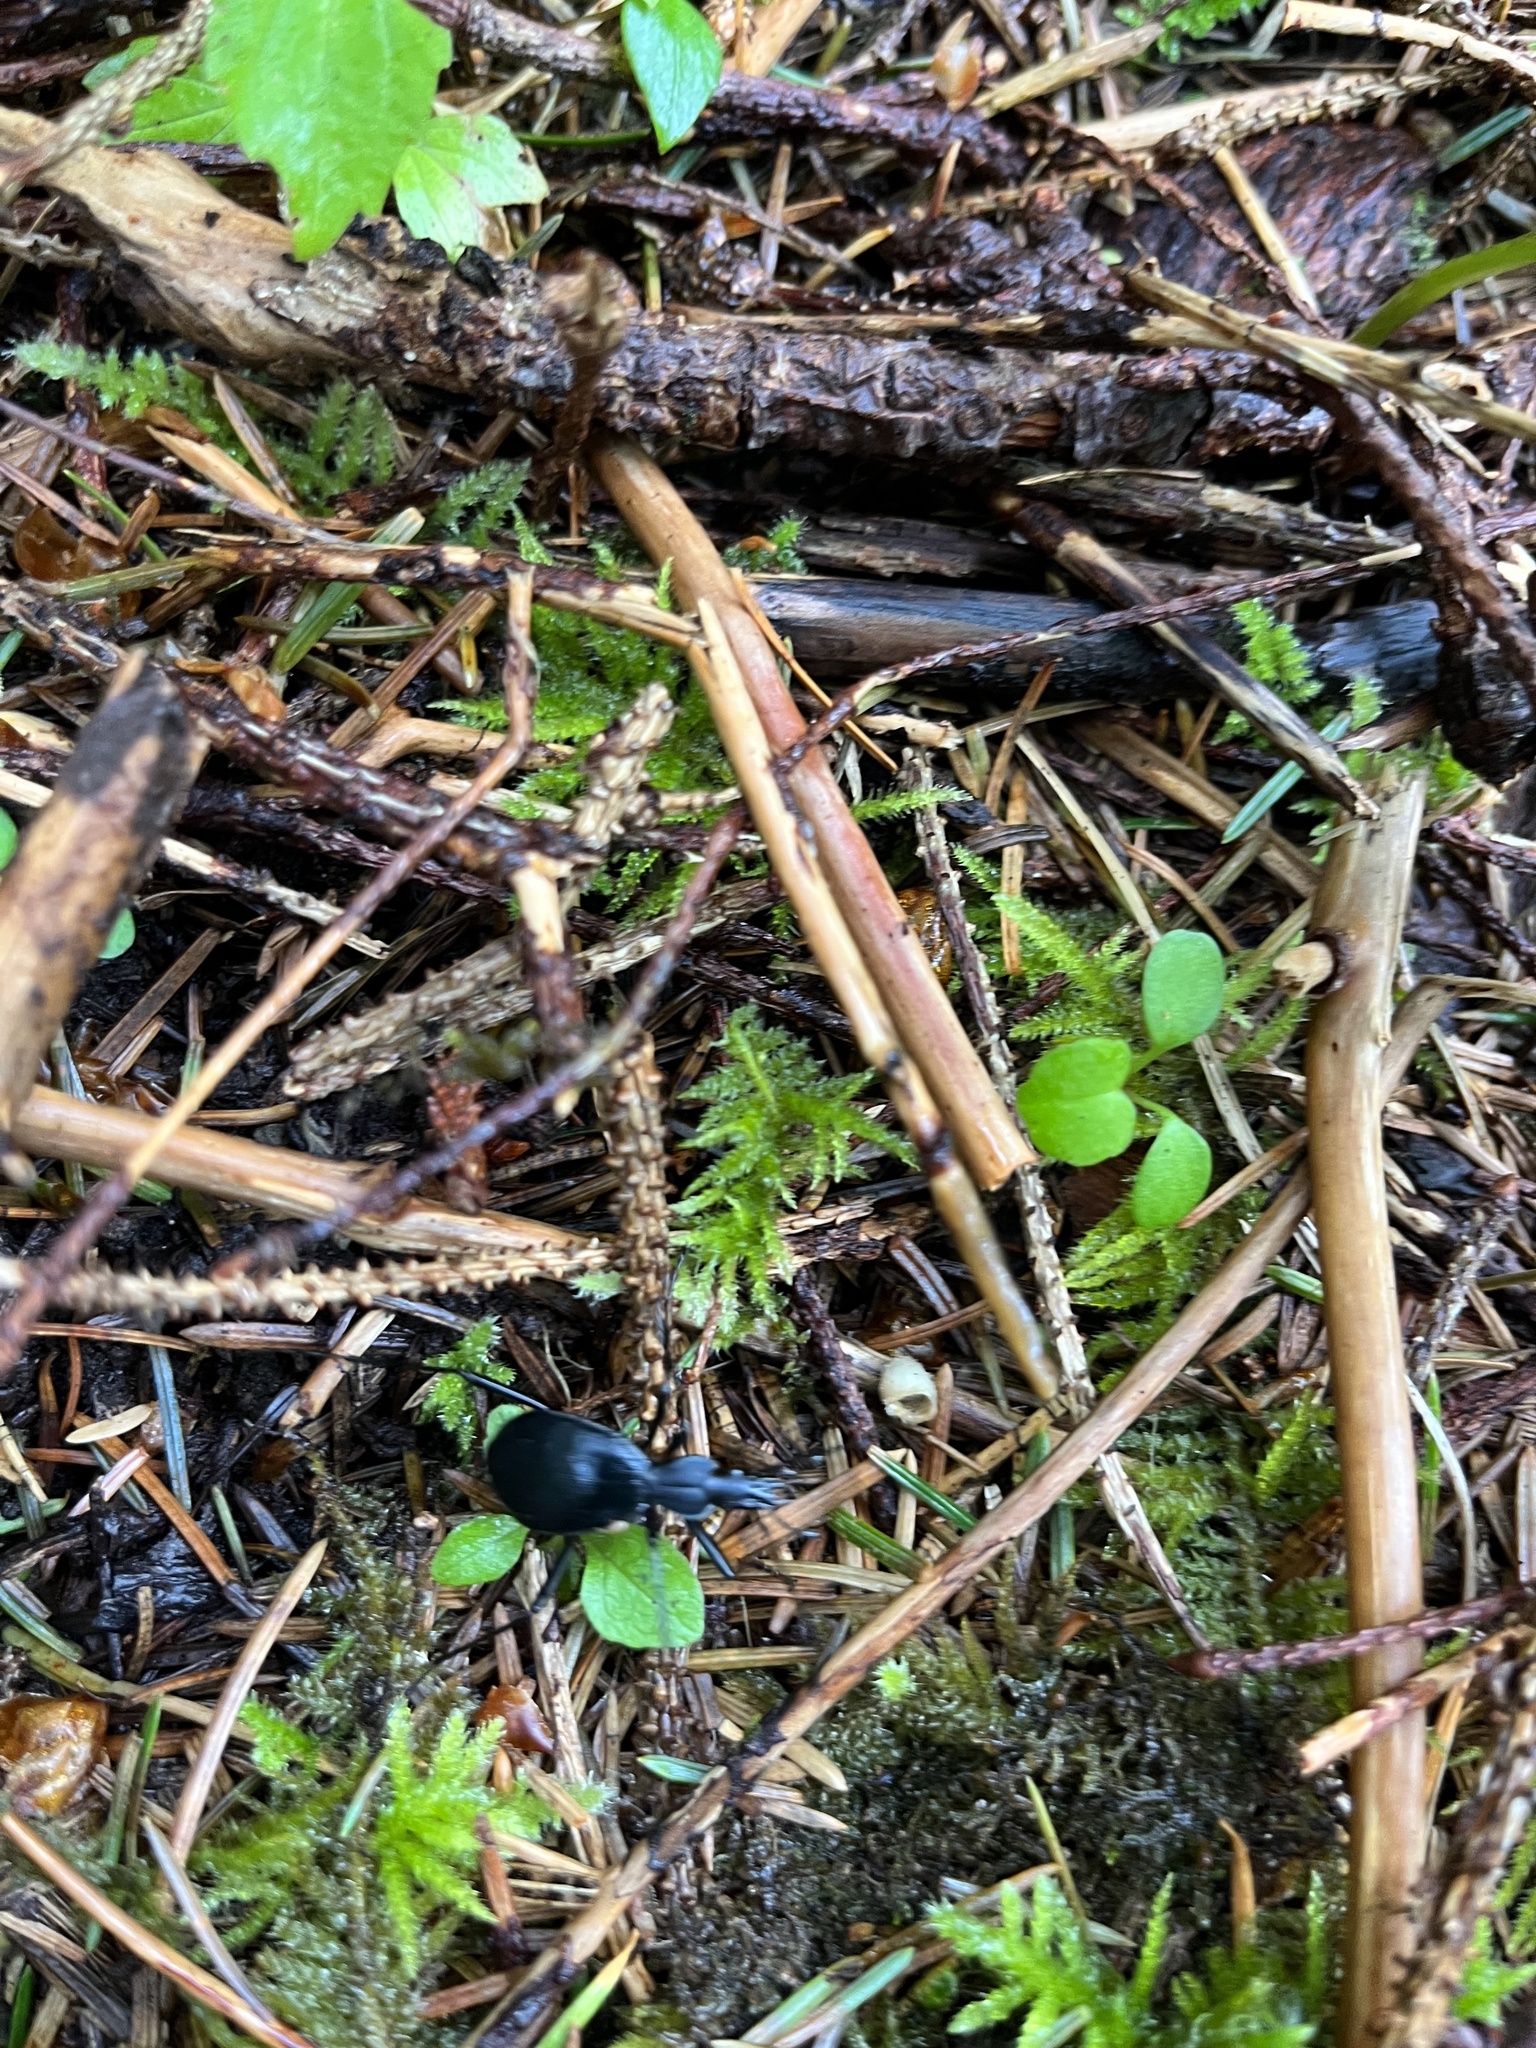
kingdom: Animalia
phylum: Arthropoda
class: Insecta
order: Coleoptera
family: Carabidae
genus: Scaphinotus
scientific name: Scaphinotus
